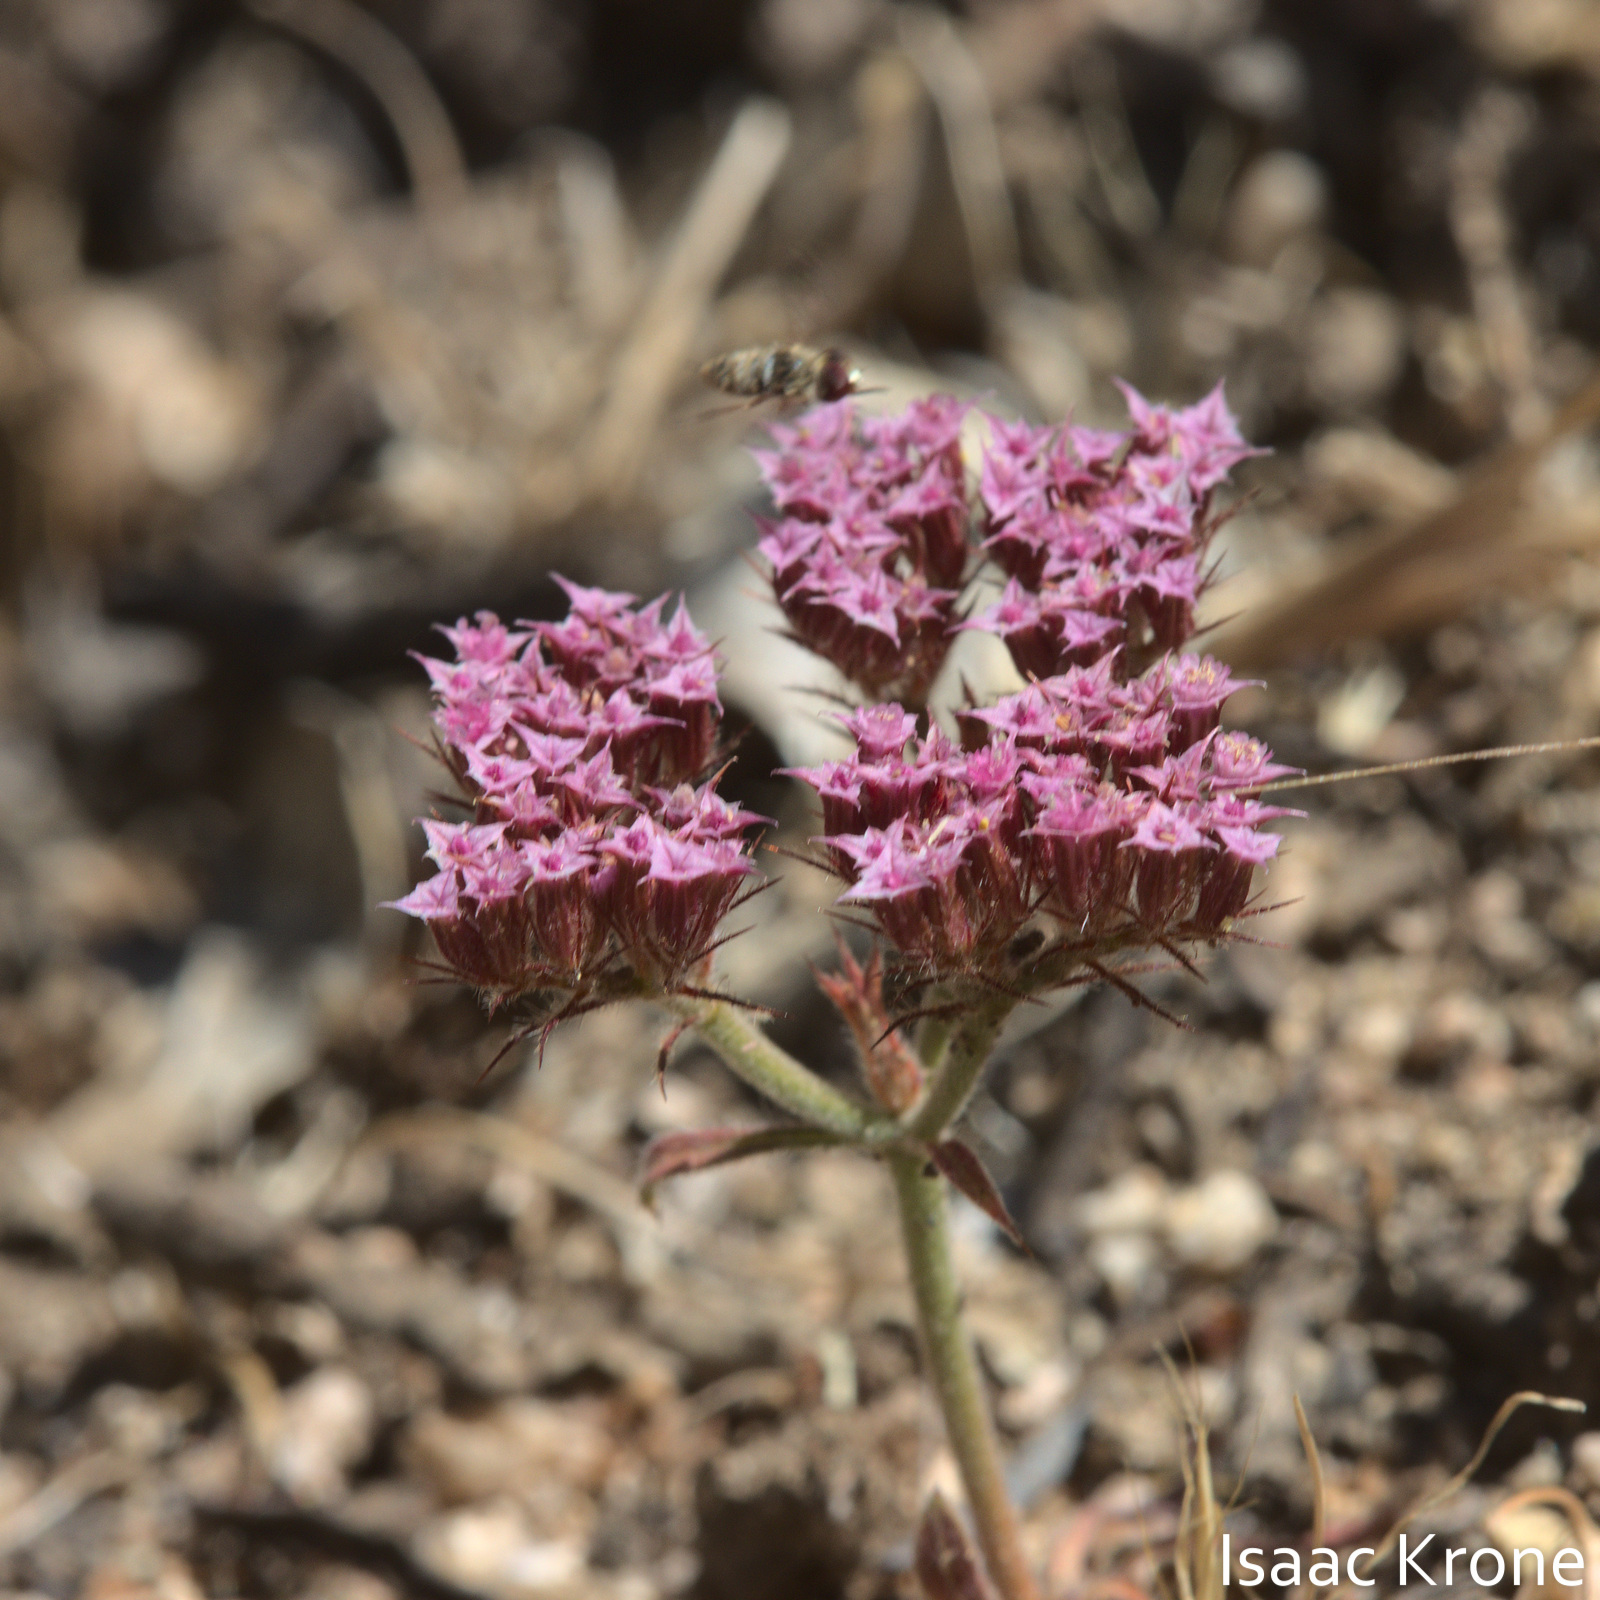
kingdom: Plantae
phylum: Tracheophyta
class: Magnoliopsida
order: Caryophyllales
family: Polygonaceae
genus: Chorizanthe
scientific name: Chorizanthe douglasii
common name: Douglas's spineflower
